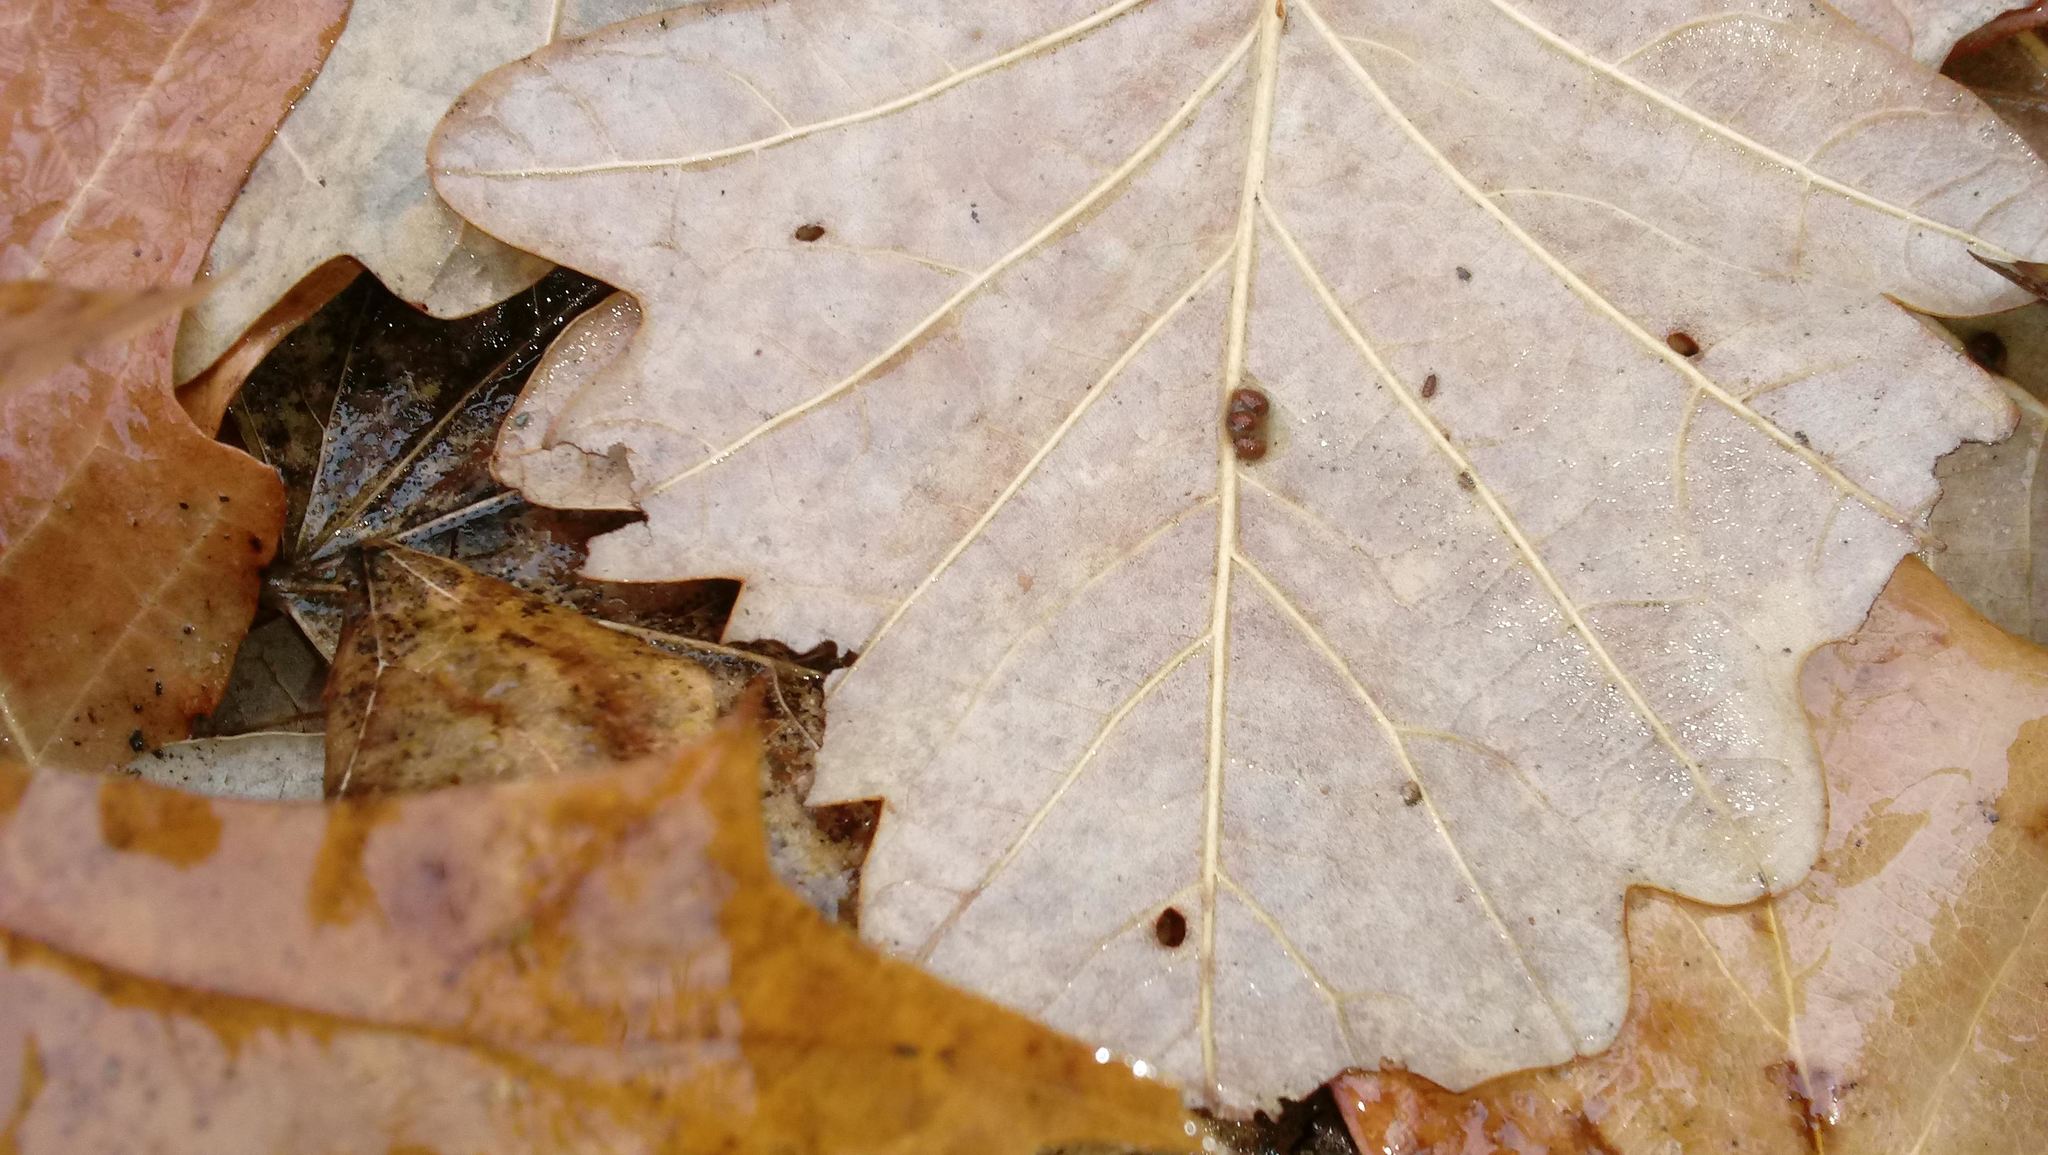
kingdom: Animalia
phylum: Arthropoda
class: Insecta
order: Hymenoptera
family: Cynipidae
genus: Andricus
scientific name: Andricus Druon ignotum
